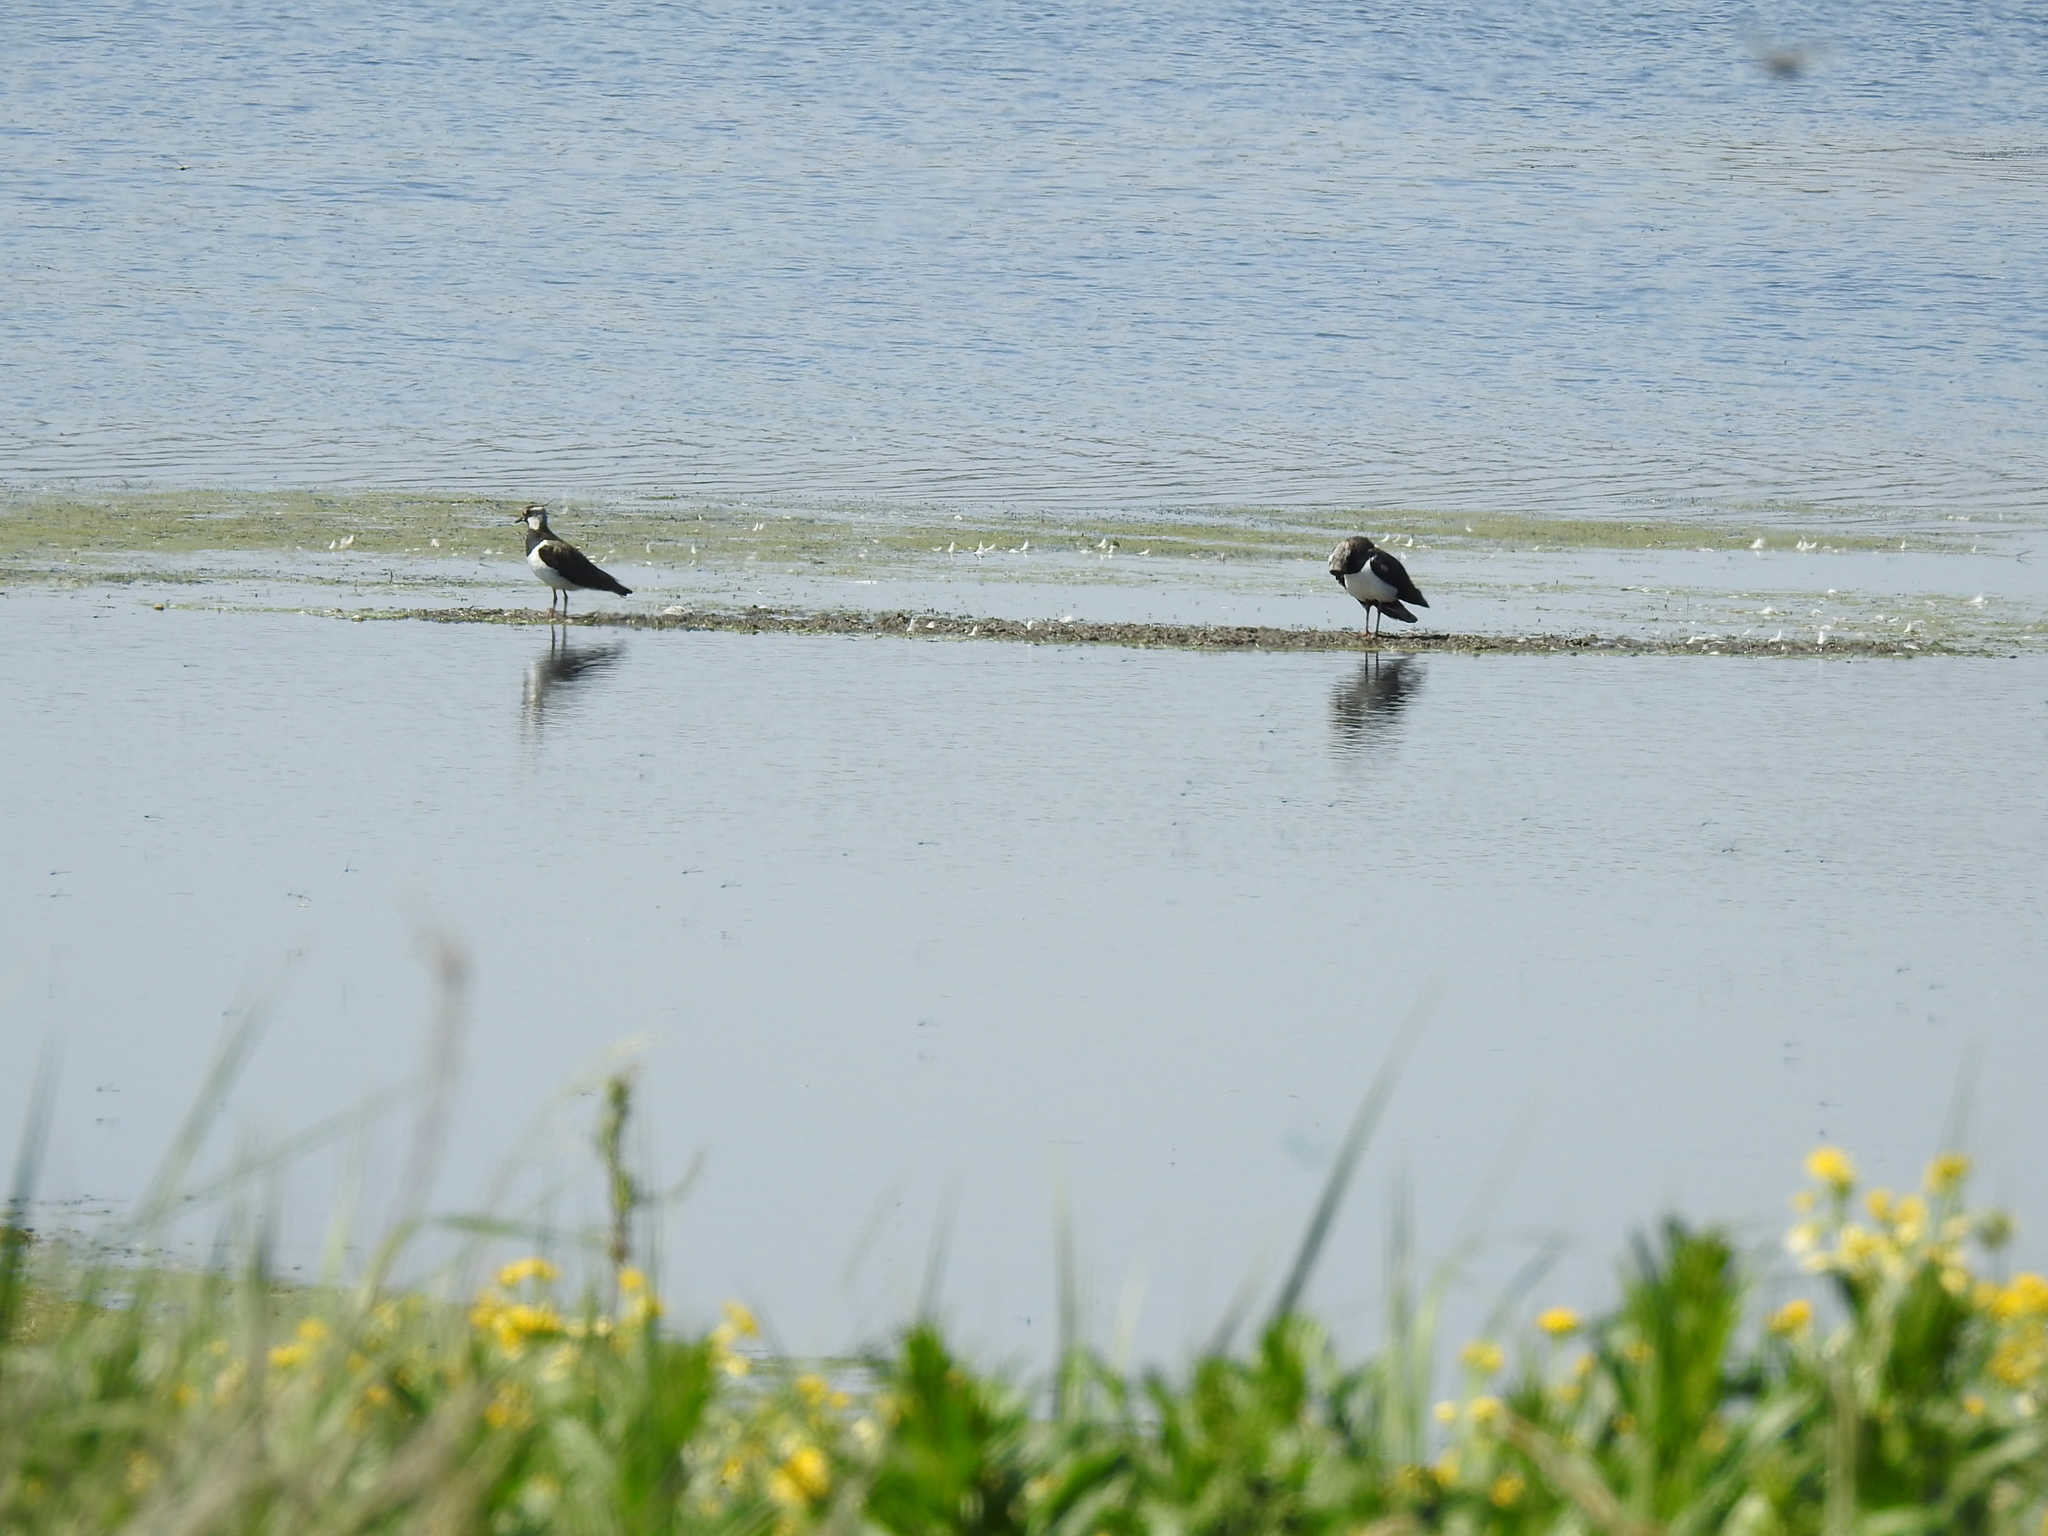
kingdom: Animalia
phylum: Chordata
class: Aves
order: Charadriiformes
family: Charadriidae
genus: Vanellus
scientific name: Vanellus vanellus
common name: Northern lapwing
